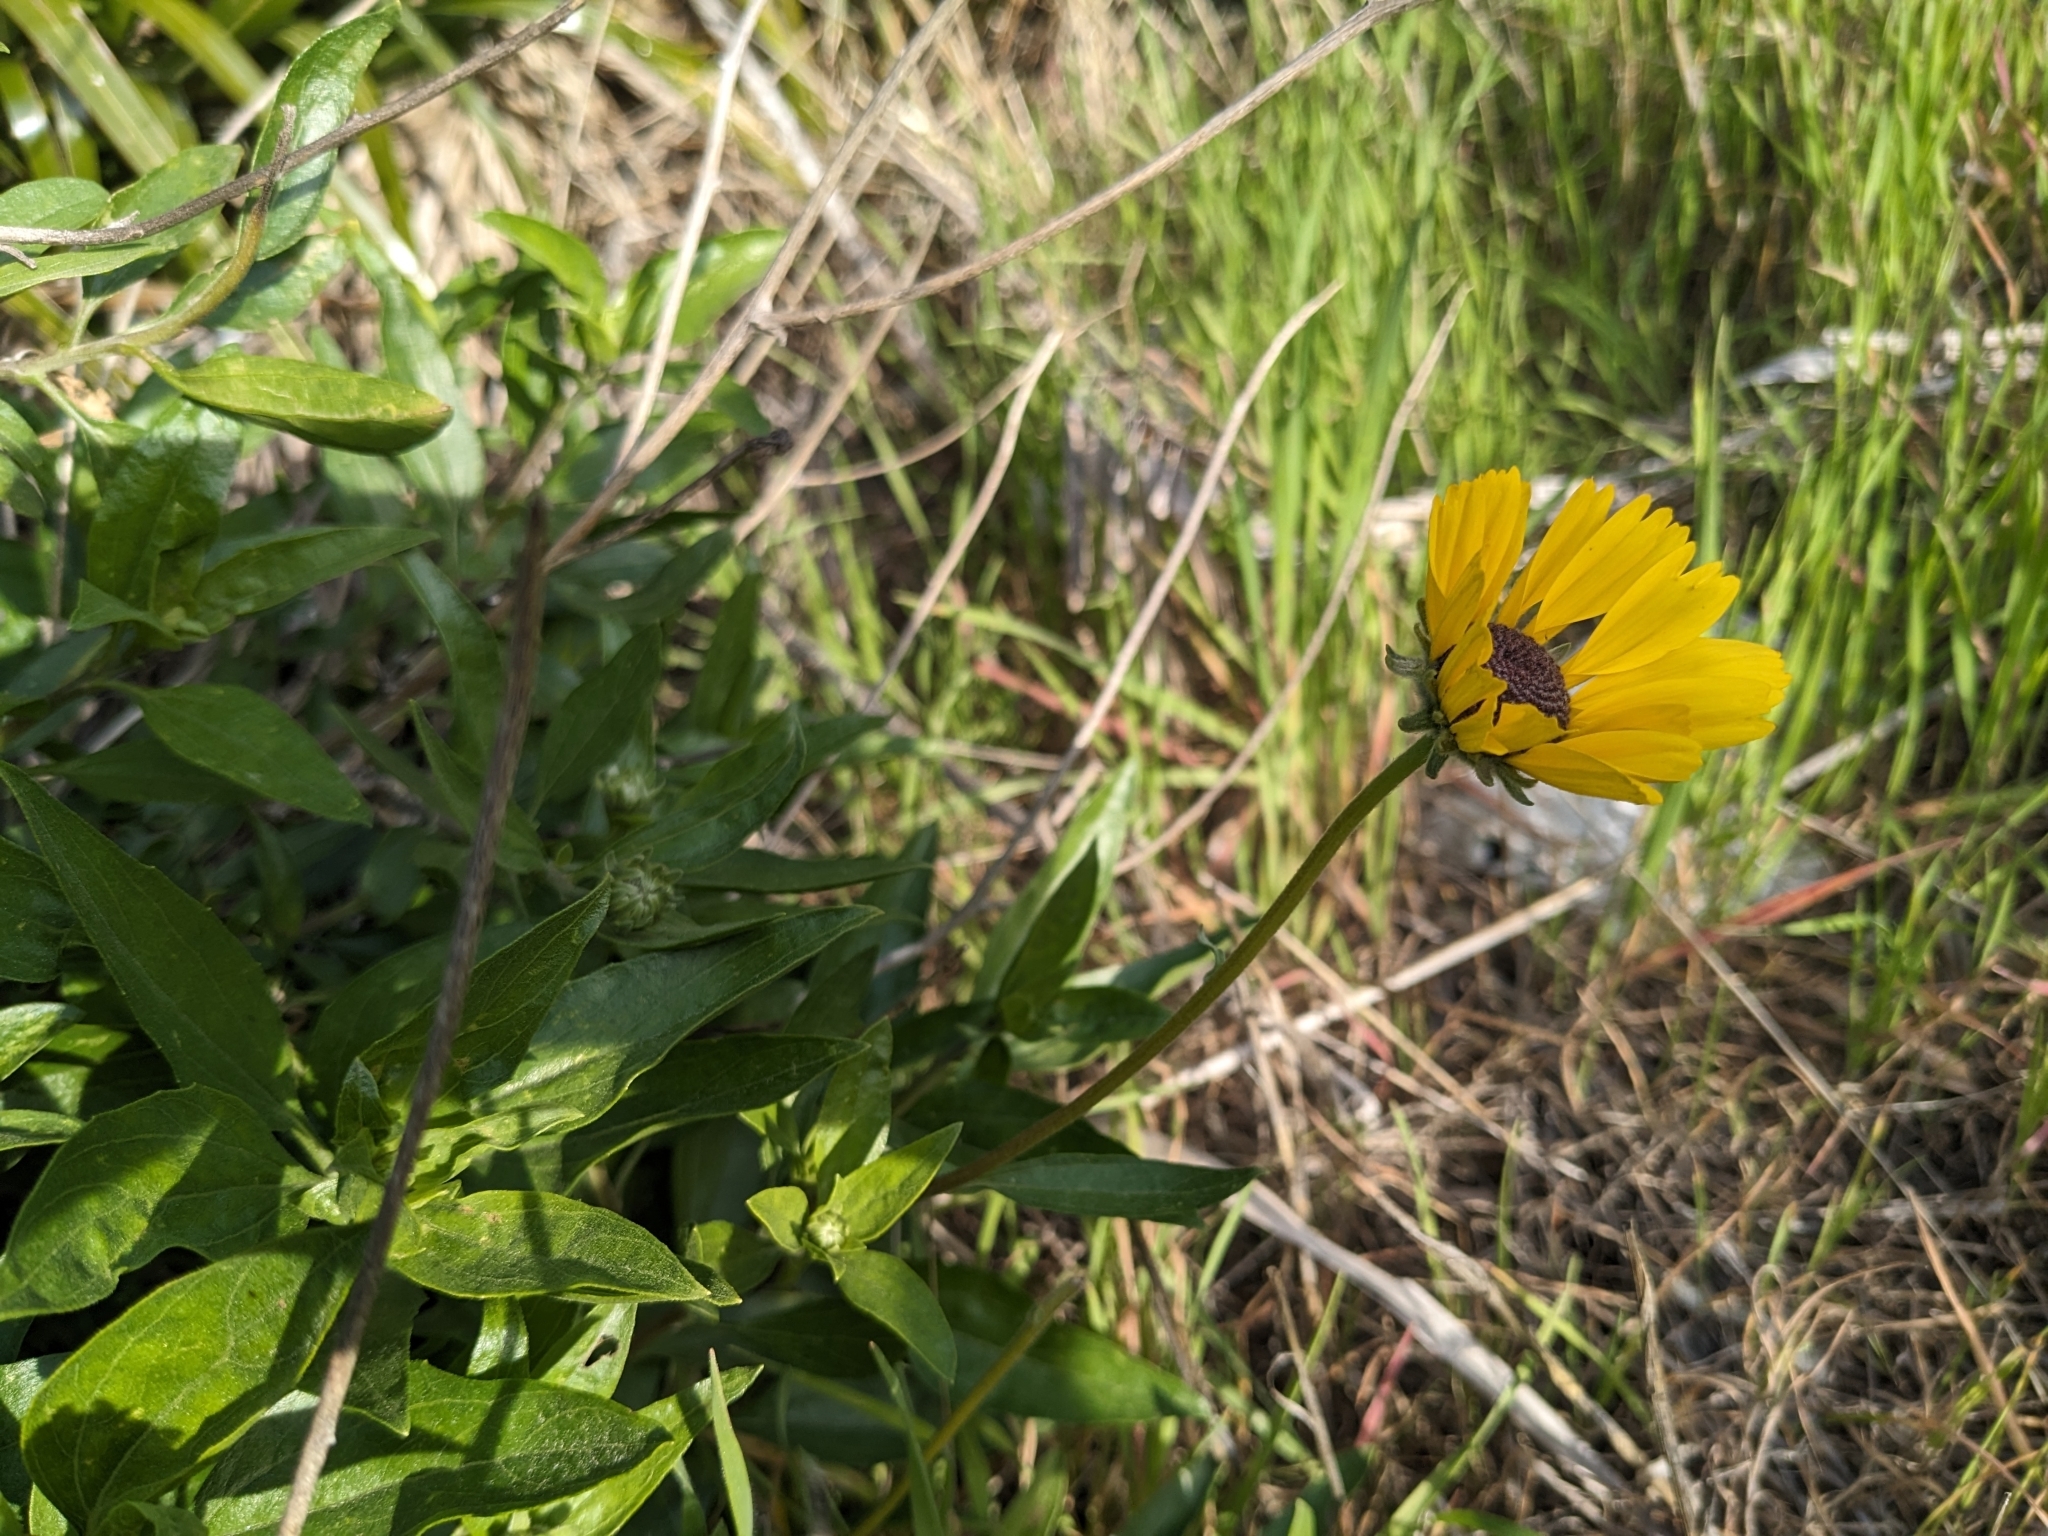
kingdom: Plantae
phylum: Tracheophyta
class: Magnoliopsida
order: Asterales
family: Asteraceae
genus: Encelia
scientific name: Encelia californica
